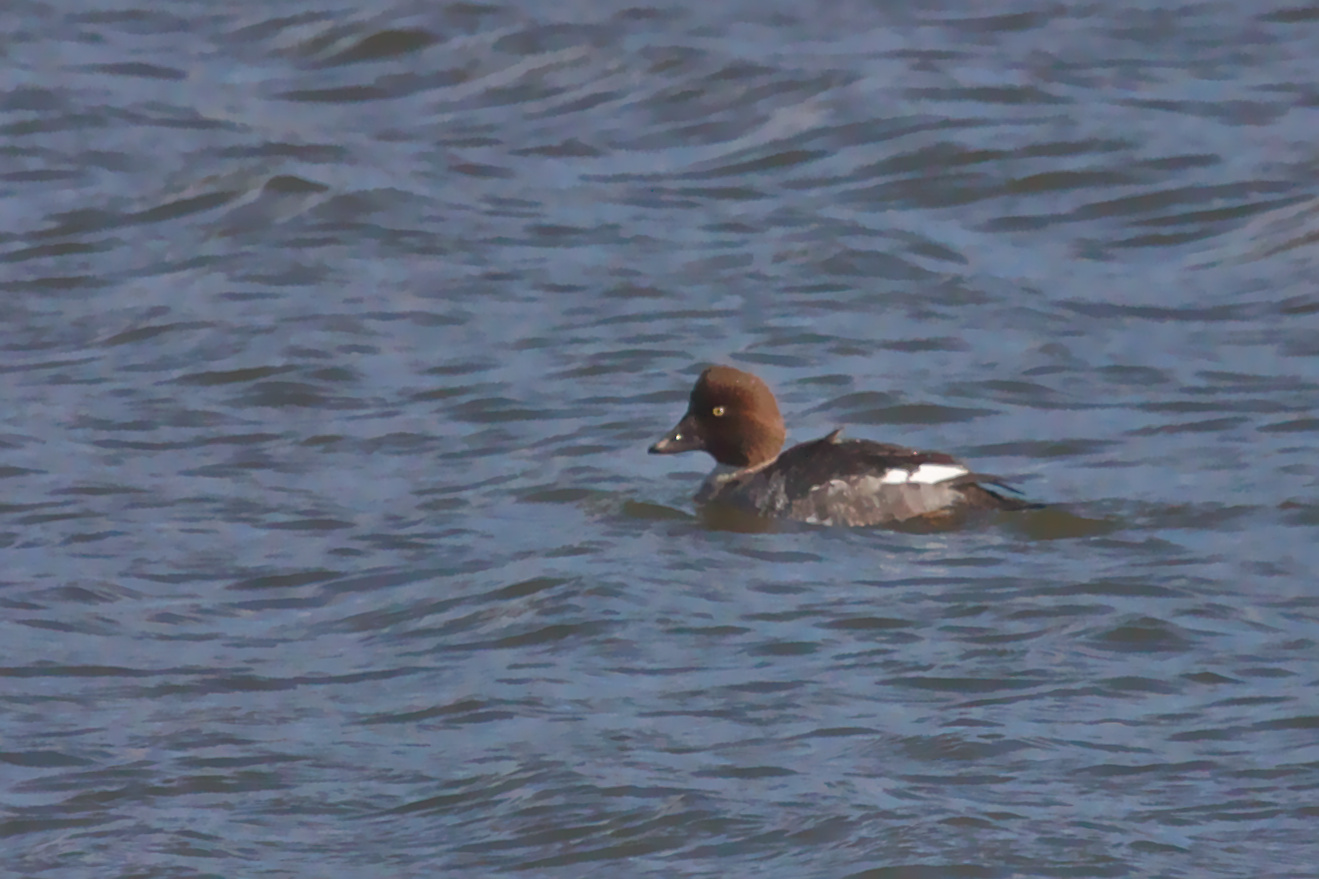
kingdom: Animalia
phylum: Chordata
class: Aves
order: Anseriformes
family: Anatidae
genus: Bucephala
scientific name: Bucephala clangula
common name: Common goldeneye
